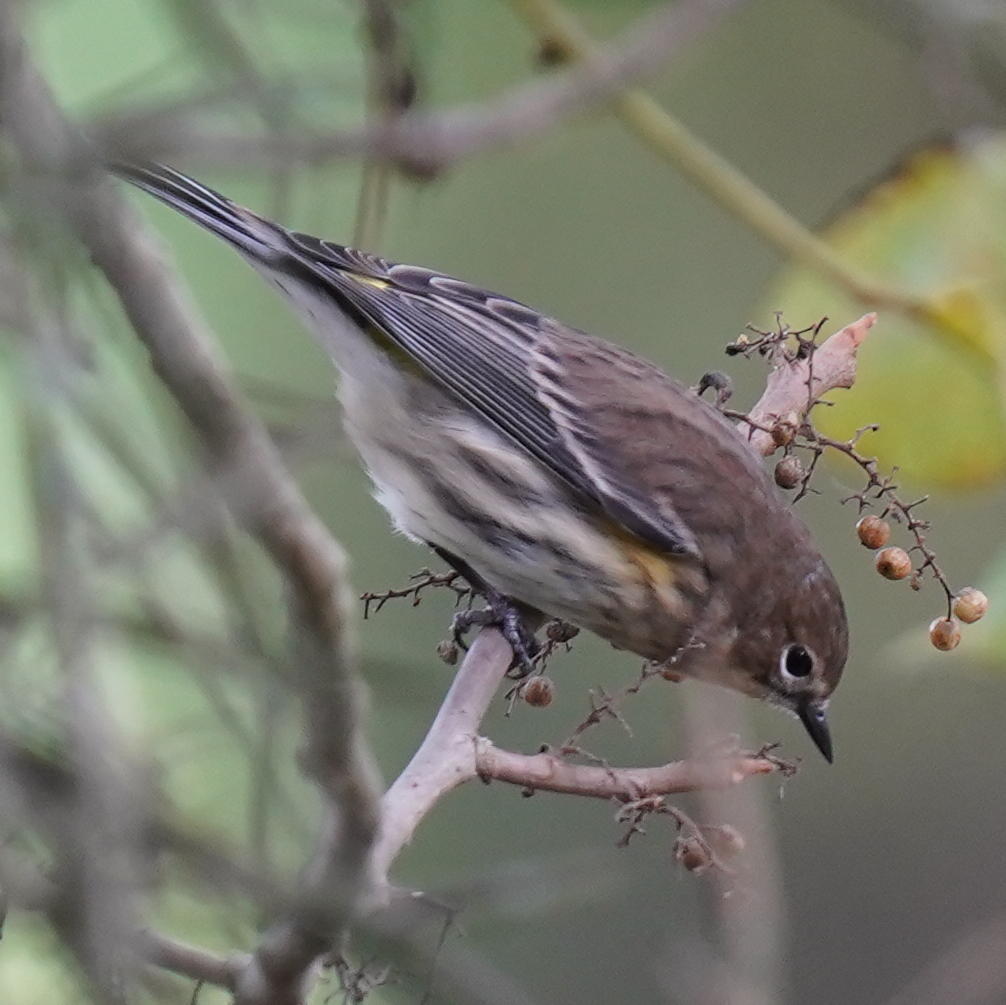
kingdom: Animalia
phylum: Chordata
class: Aves
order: Passeriformes
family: Parulidae
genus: Setophaga
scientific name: Setophaga coronata
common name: Myrtle warbler
